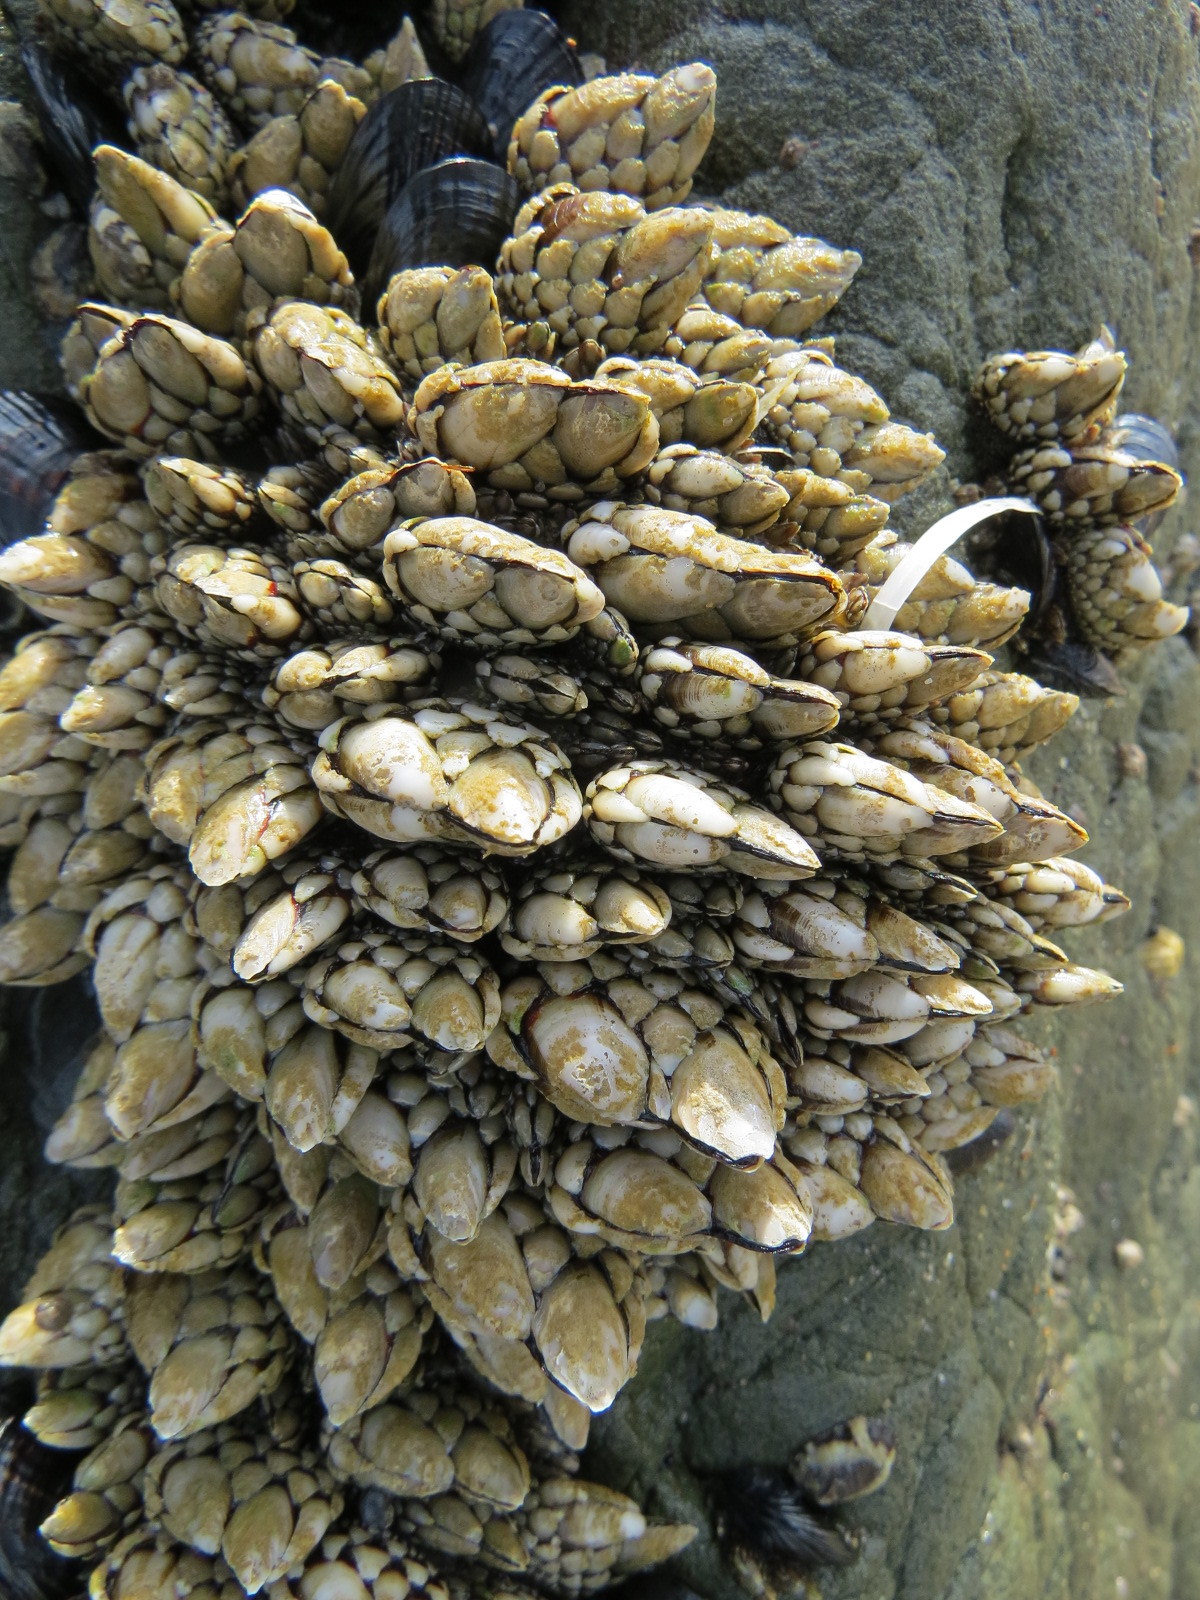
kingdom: Animalia
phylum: Arthropoda
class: Maxillopoda
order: Pedunculata
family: Pollicipedidae
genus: Pollicipes
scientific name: Pollicipes polymerus
